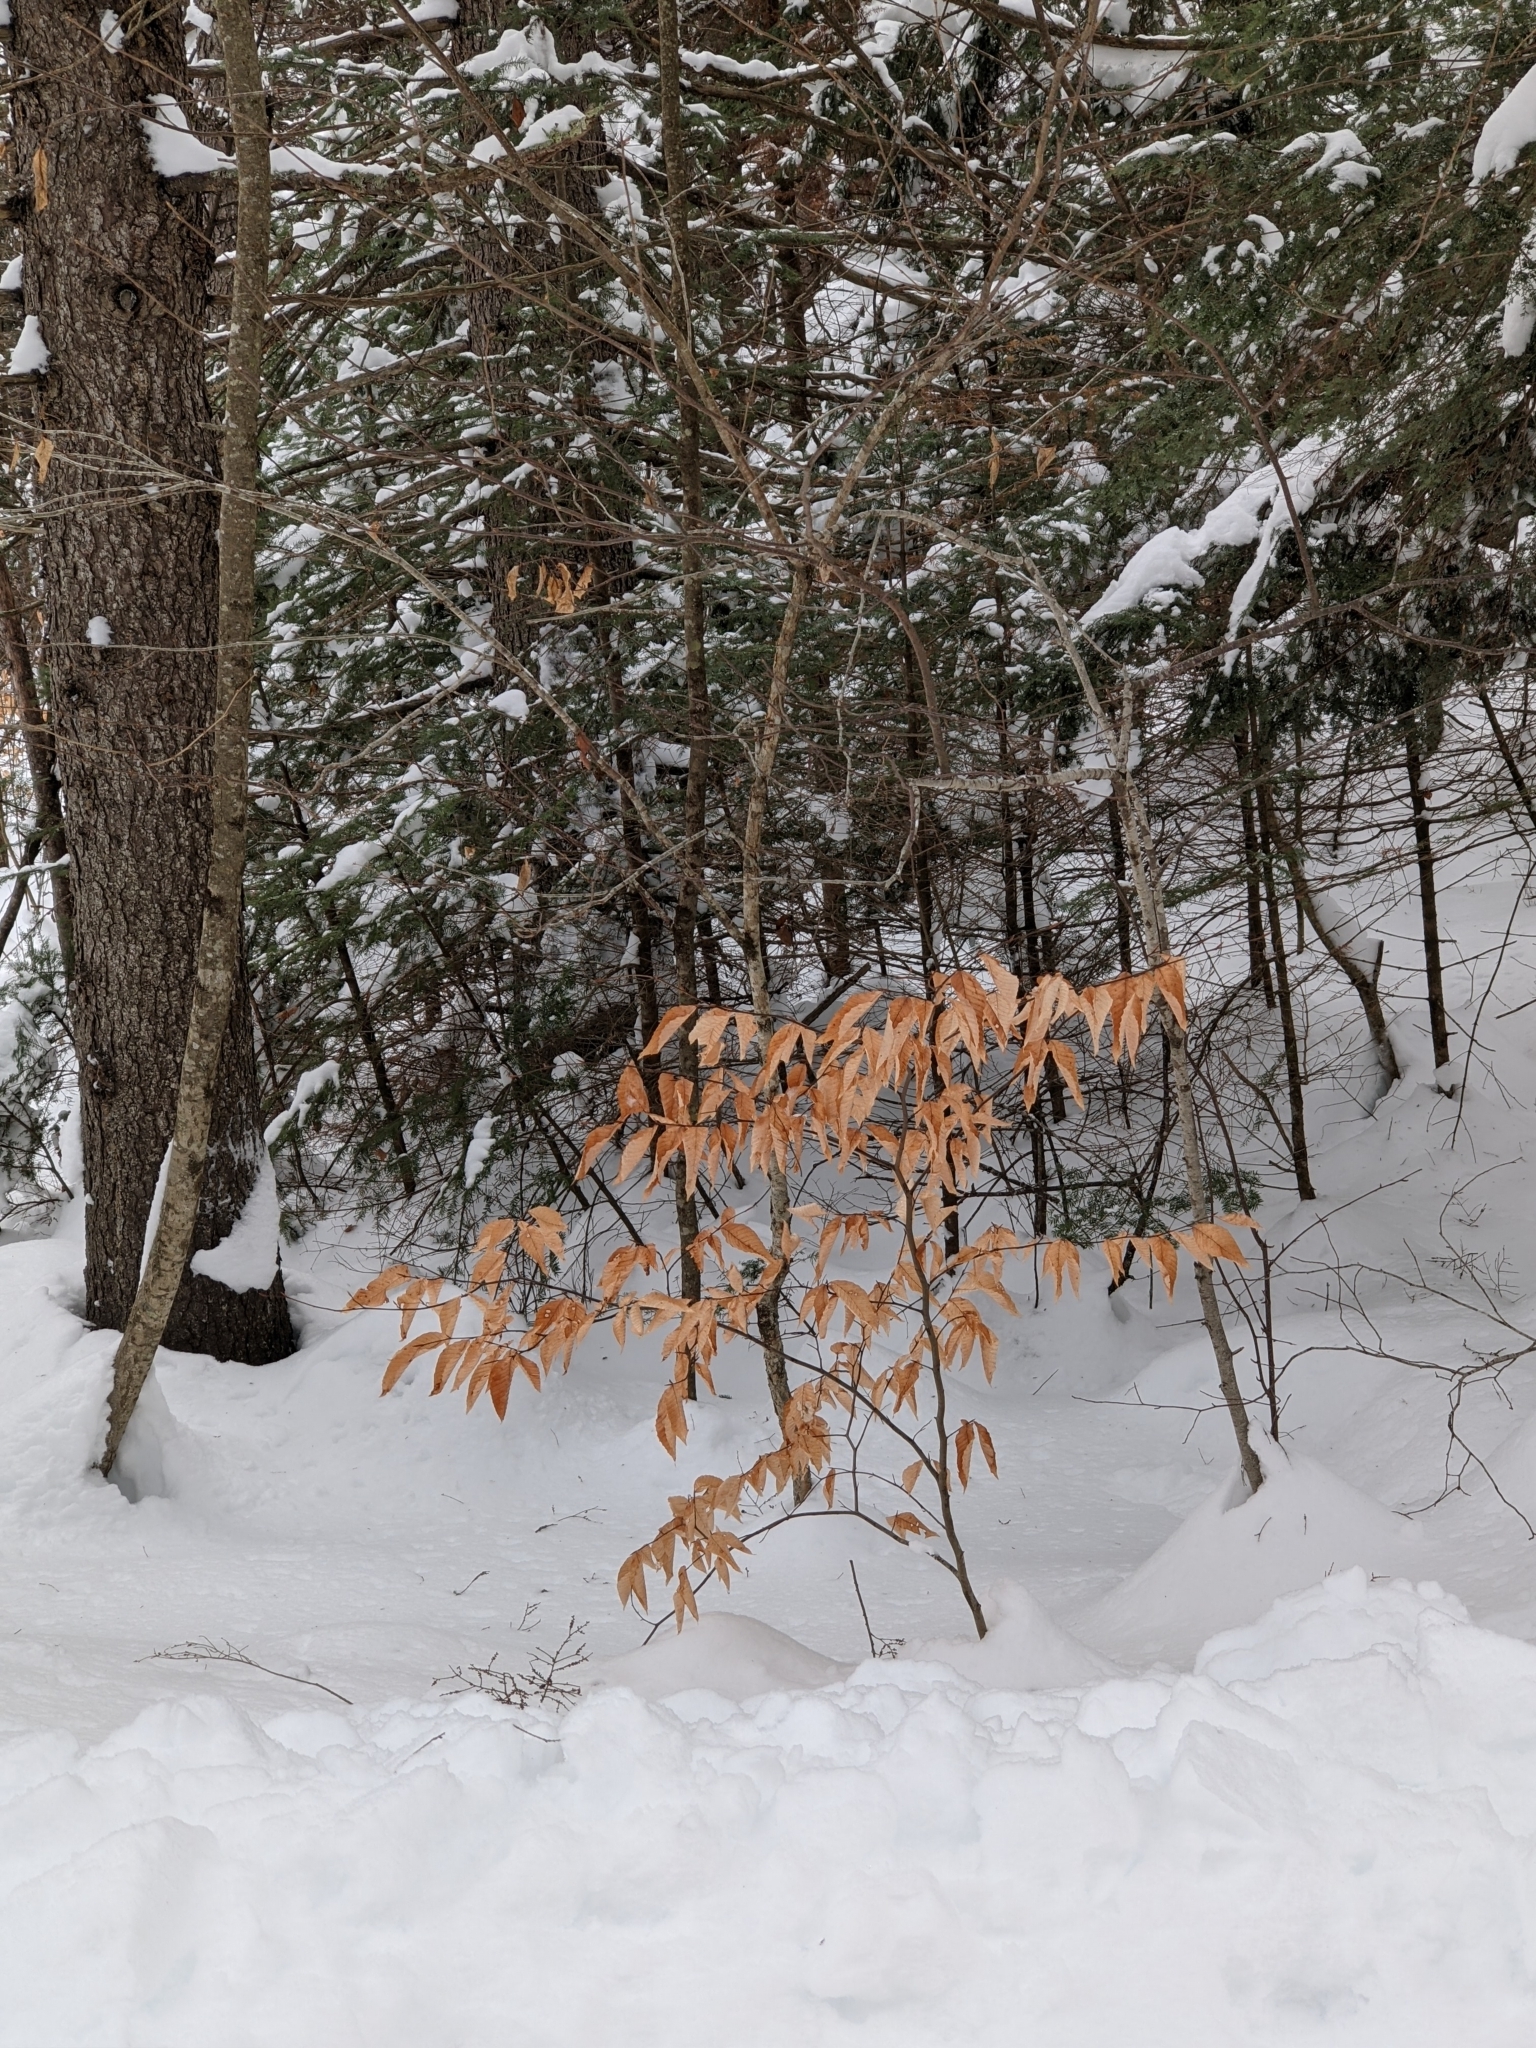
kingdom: Plantae
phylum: Tracheophyta
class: Magnoliopsida
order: Fagales
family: Fagaceae
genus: Fagus
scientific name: Fagus grandifolia
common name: American beech
